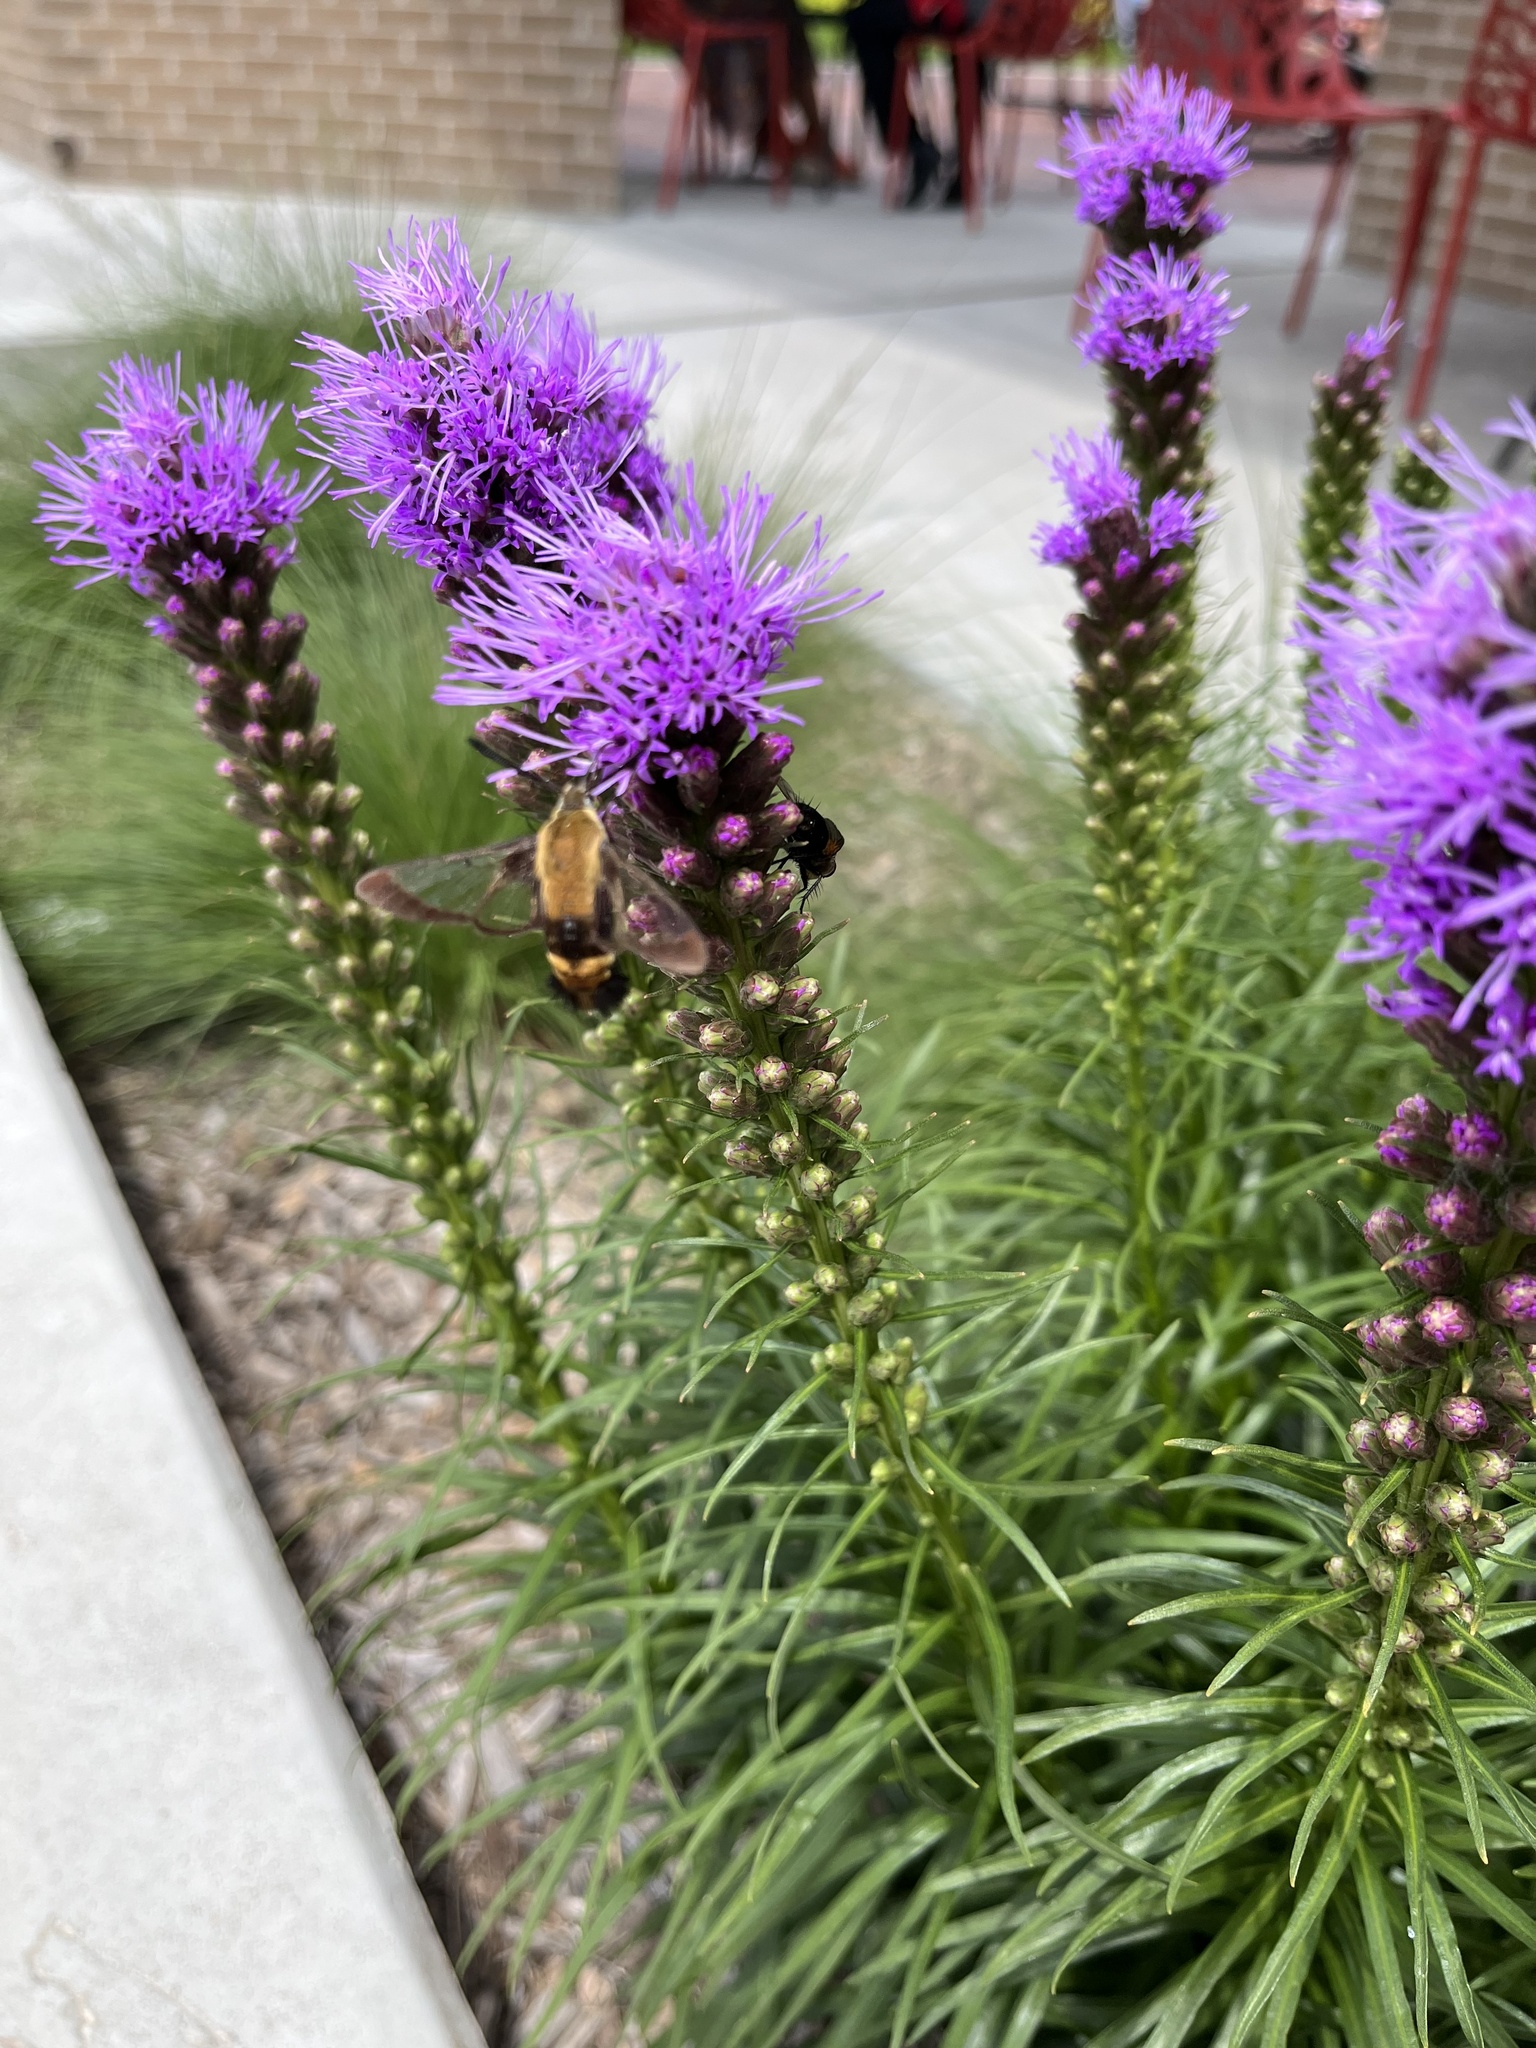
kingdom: Animalia
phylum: Arthropoda
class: Insecta
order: Lepidoptera
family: Sphingidae
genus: Hemaris
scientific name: Hemaris diffinis
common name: Bumblebee moth
